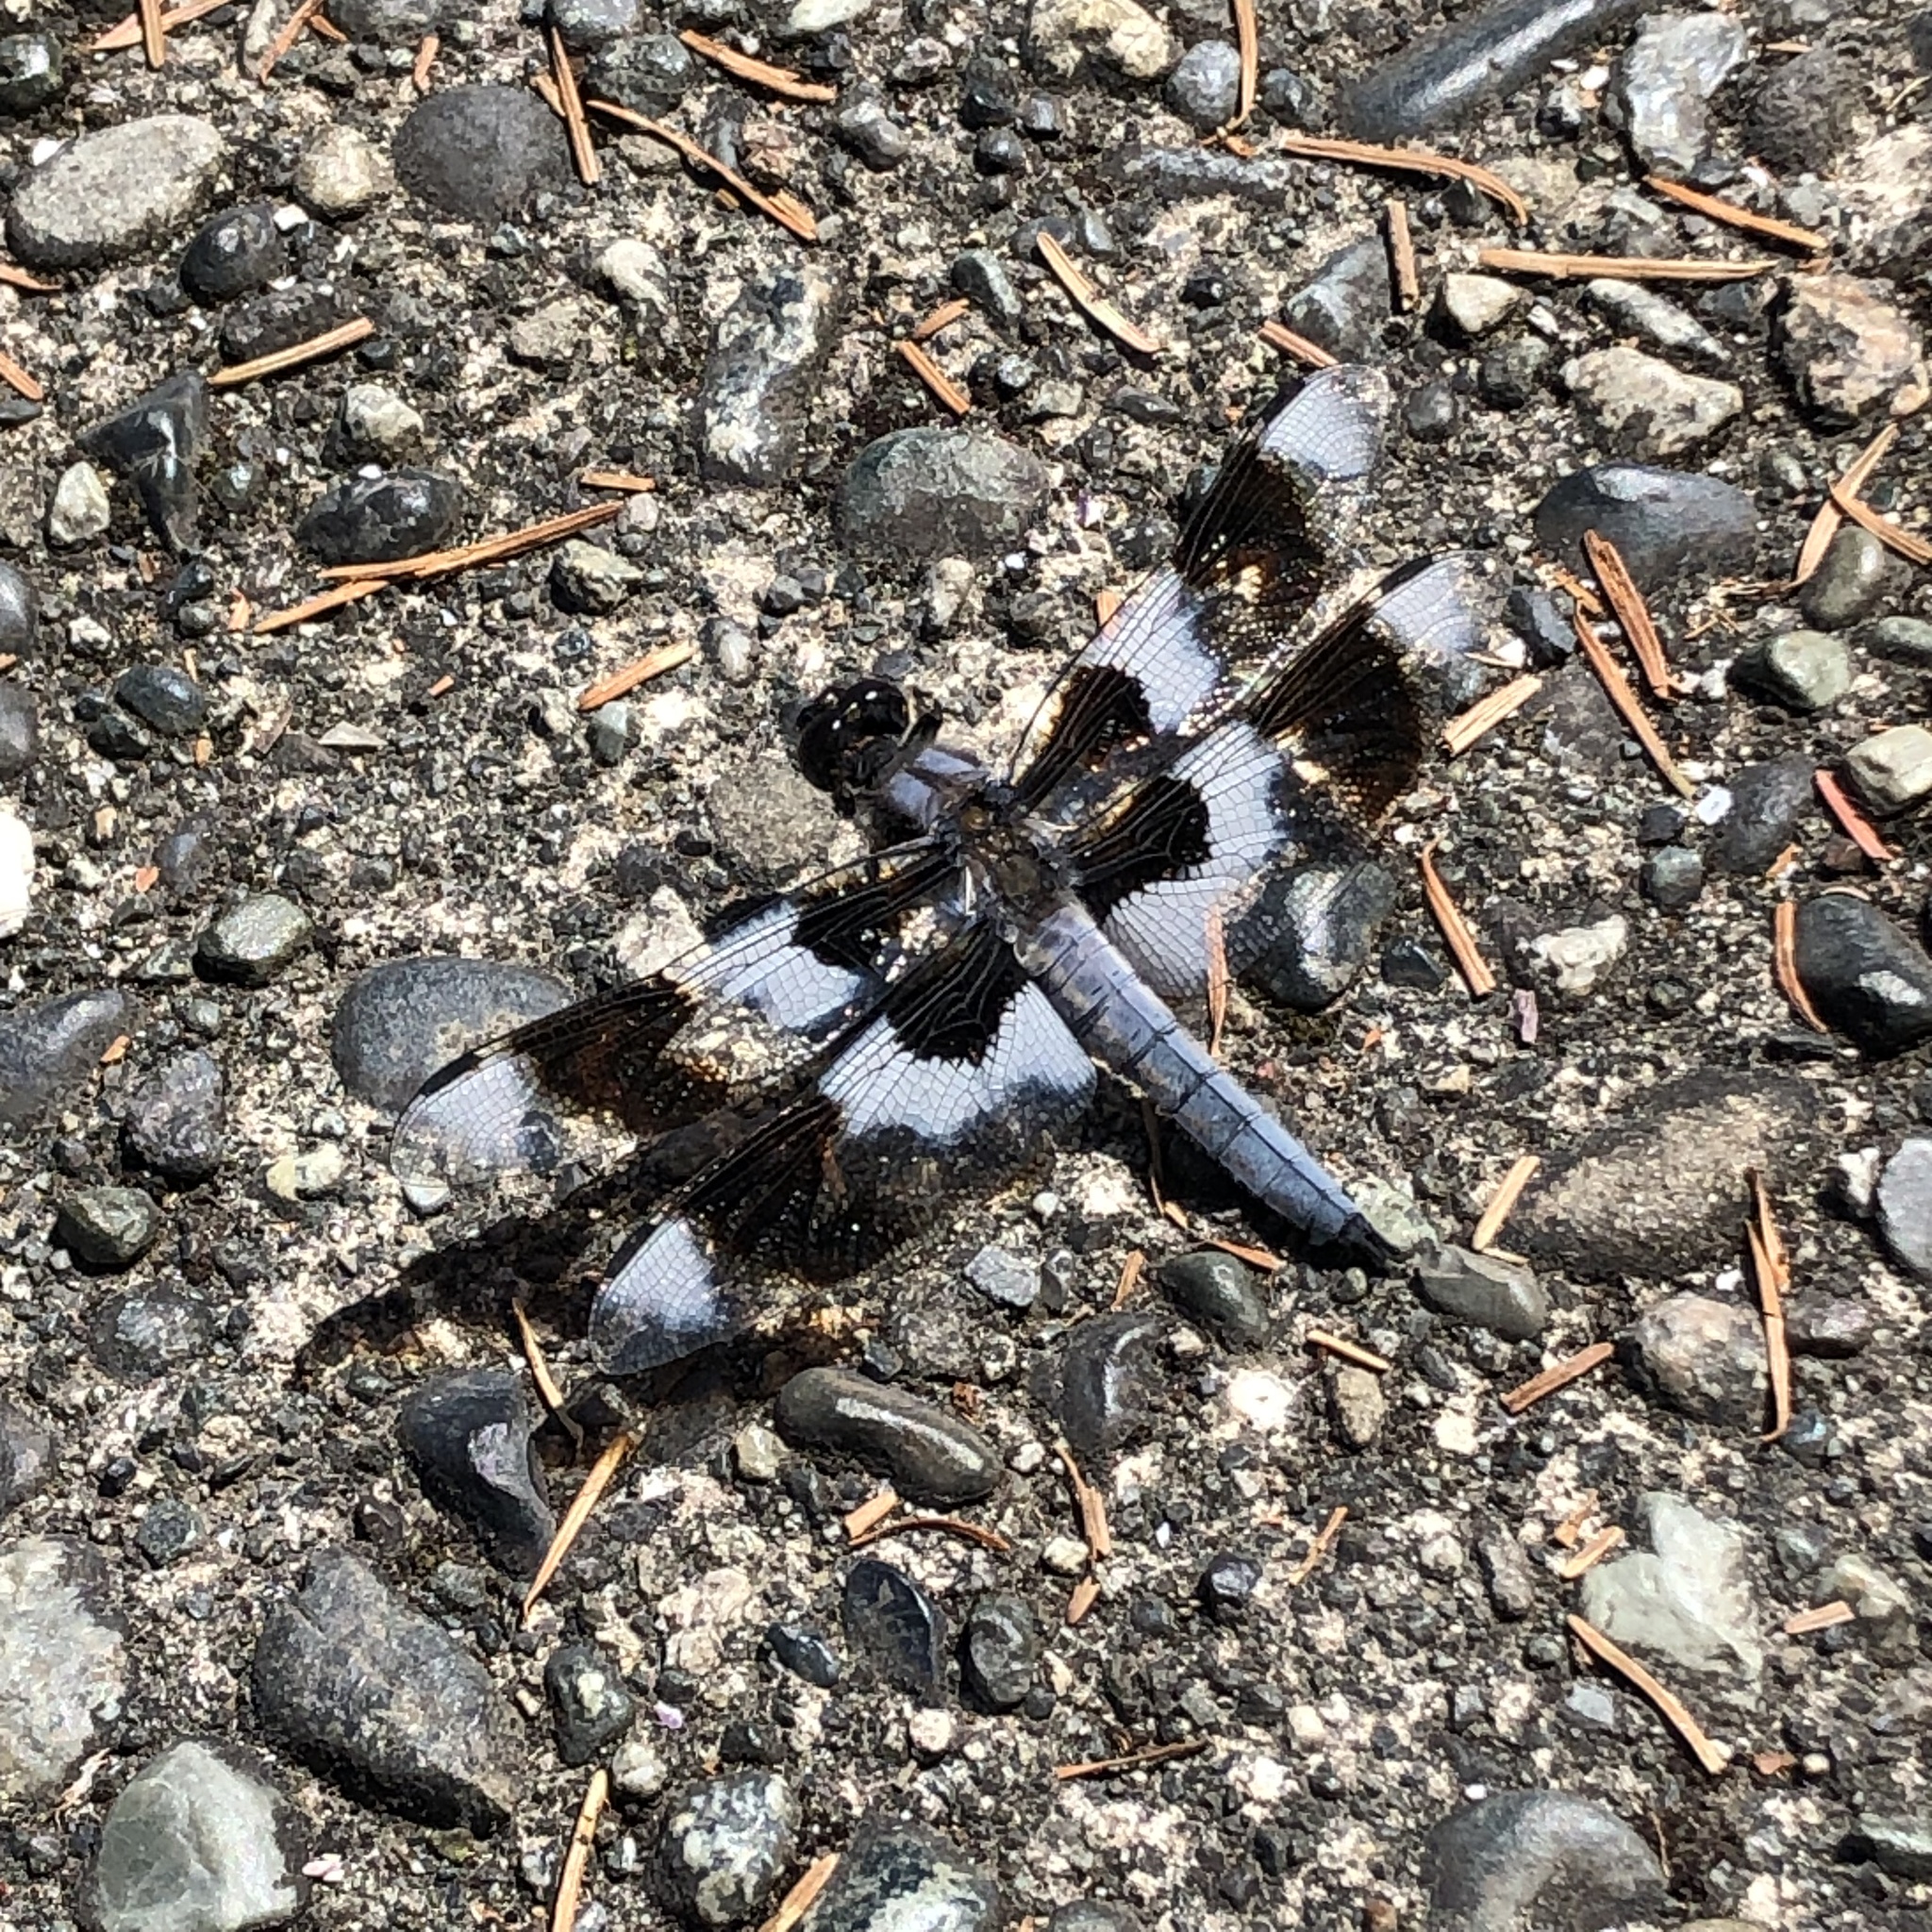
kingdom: Animalia
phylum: Arthropoda
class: Insecta
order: Odonata
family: Libellulidae
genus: Libellula
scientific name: Libellula forensis
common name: Eight-spotted skimmer
